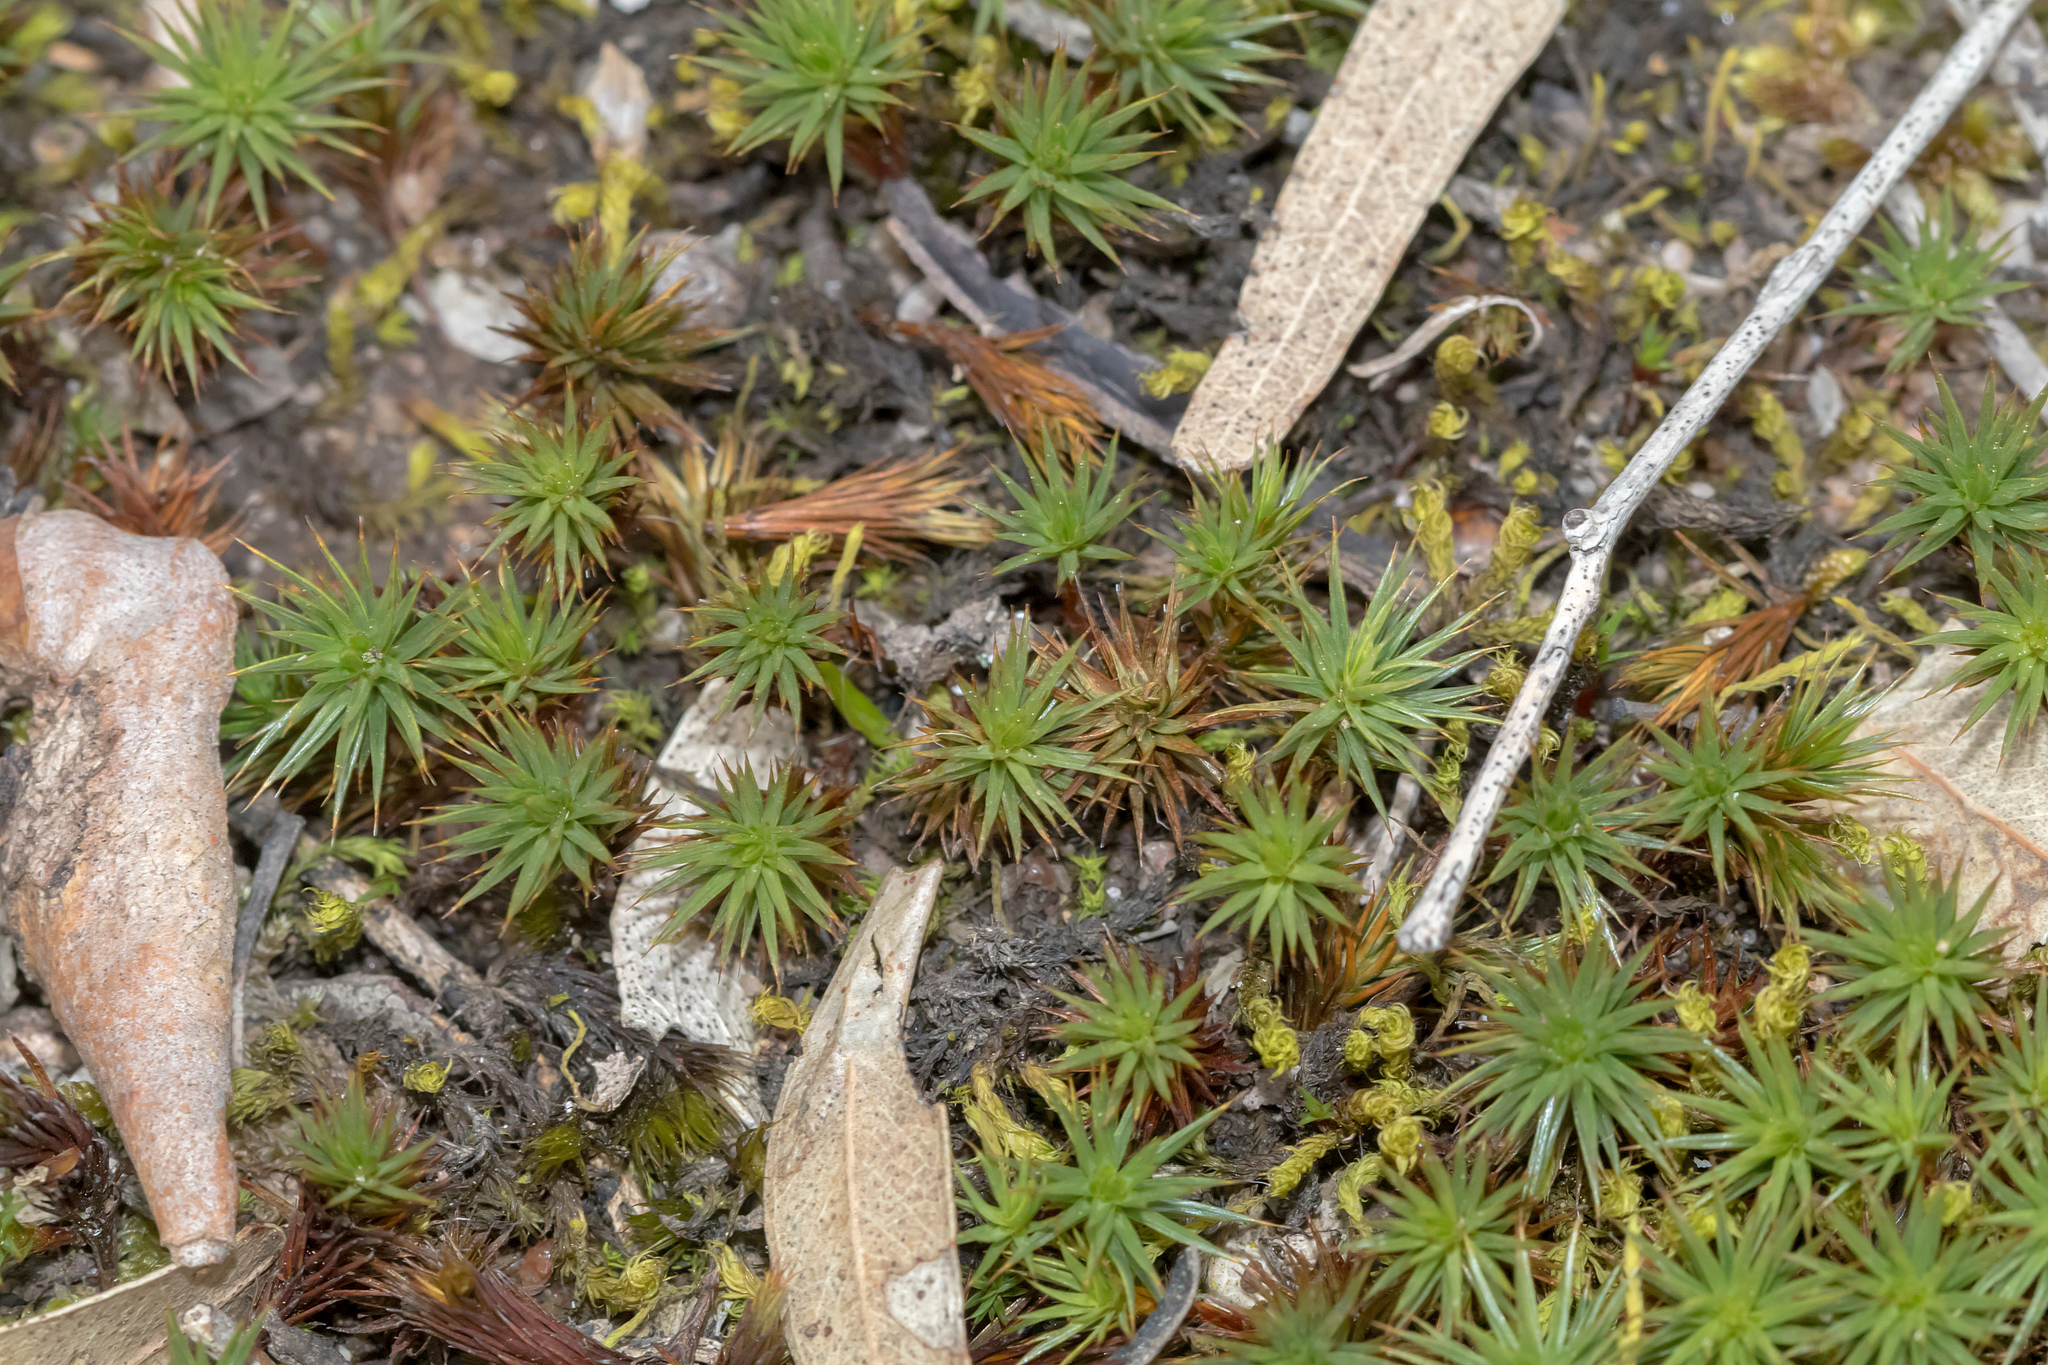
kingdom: Plantae
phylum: Bryophyta
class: Polytrichopsida
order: Polytrichales
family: Polytrichaceae
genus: Polytrichum
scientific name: Polytrichum juniperinum
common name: Juniper haircap moss
